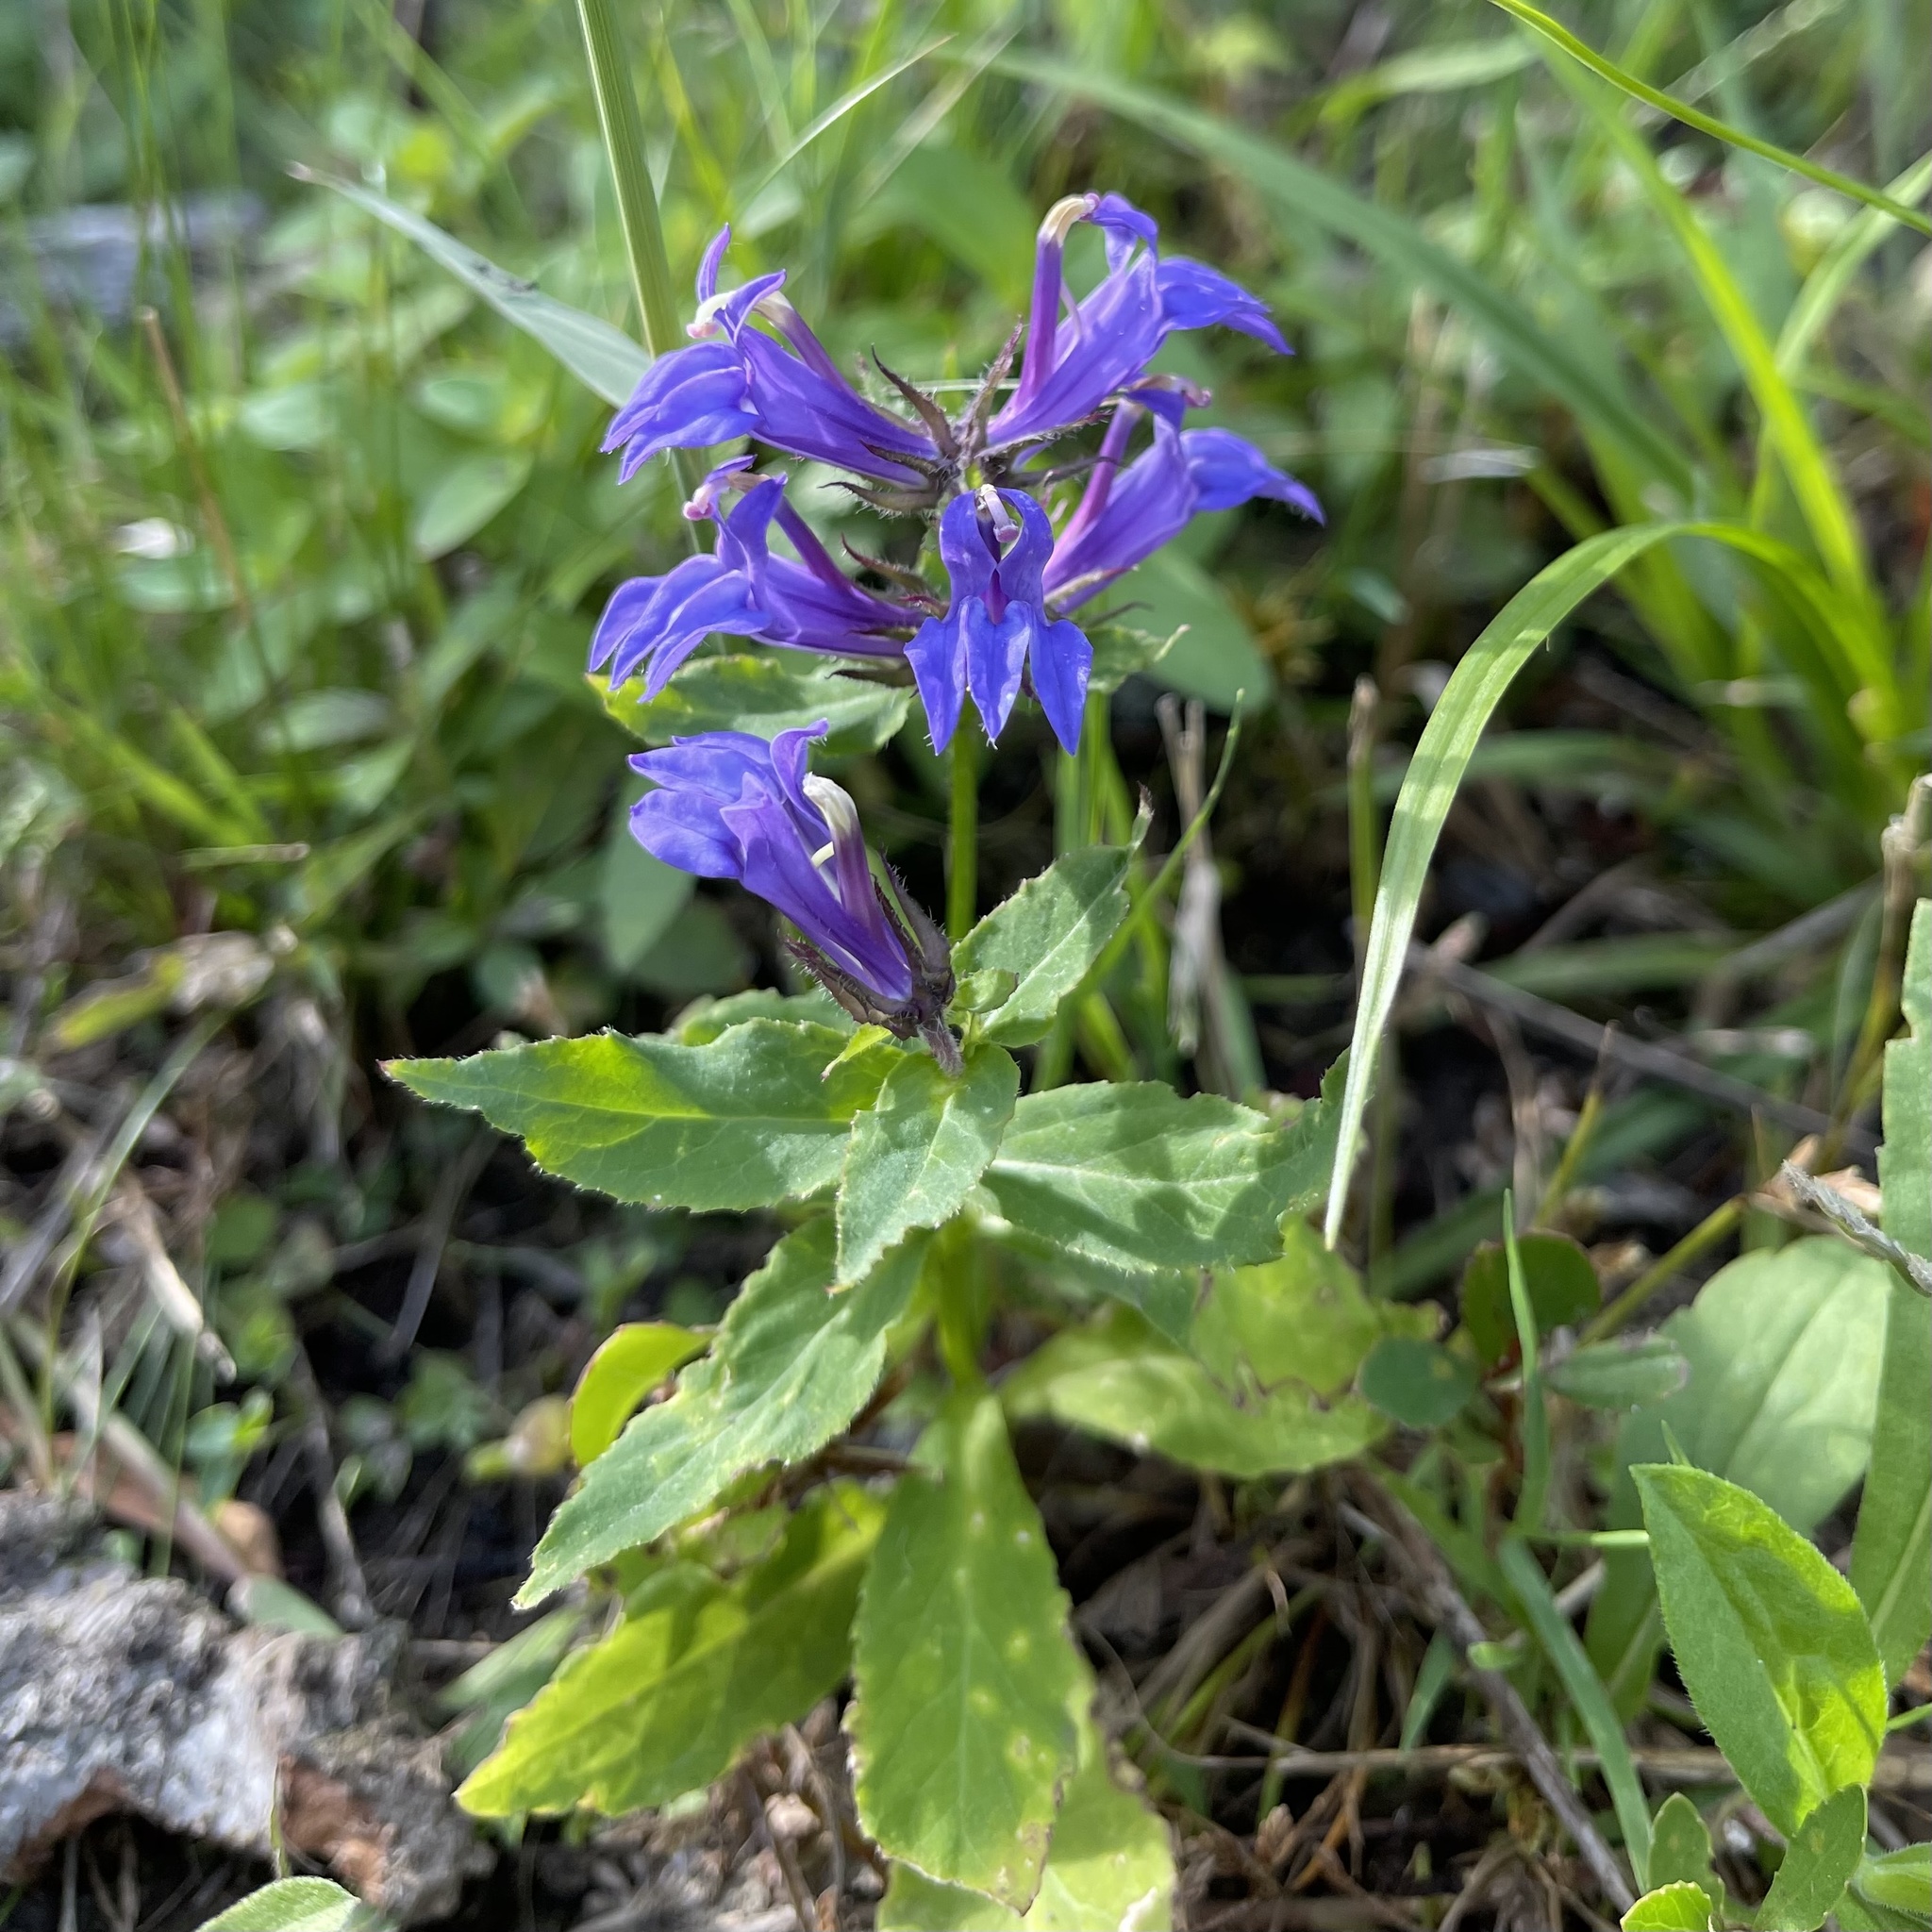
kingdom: Plantae
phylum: Tracheophyta
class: Magnoliopsida
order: Asterales
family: Campanulaceae
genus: Lobelia
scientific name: Lobelia siphilitica
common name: Great lobelia
